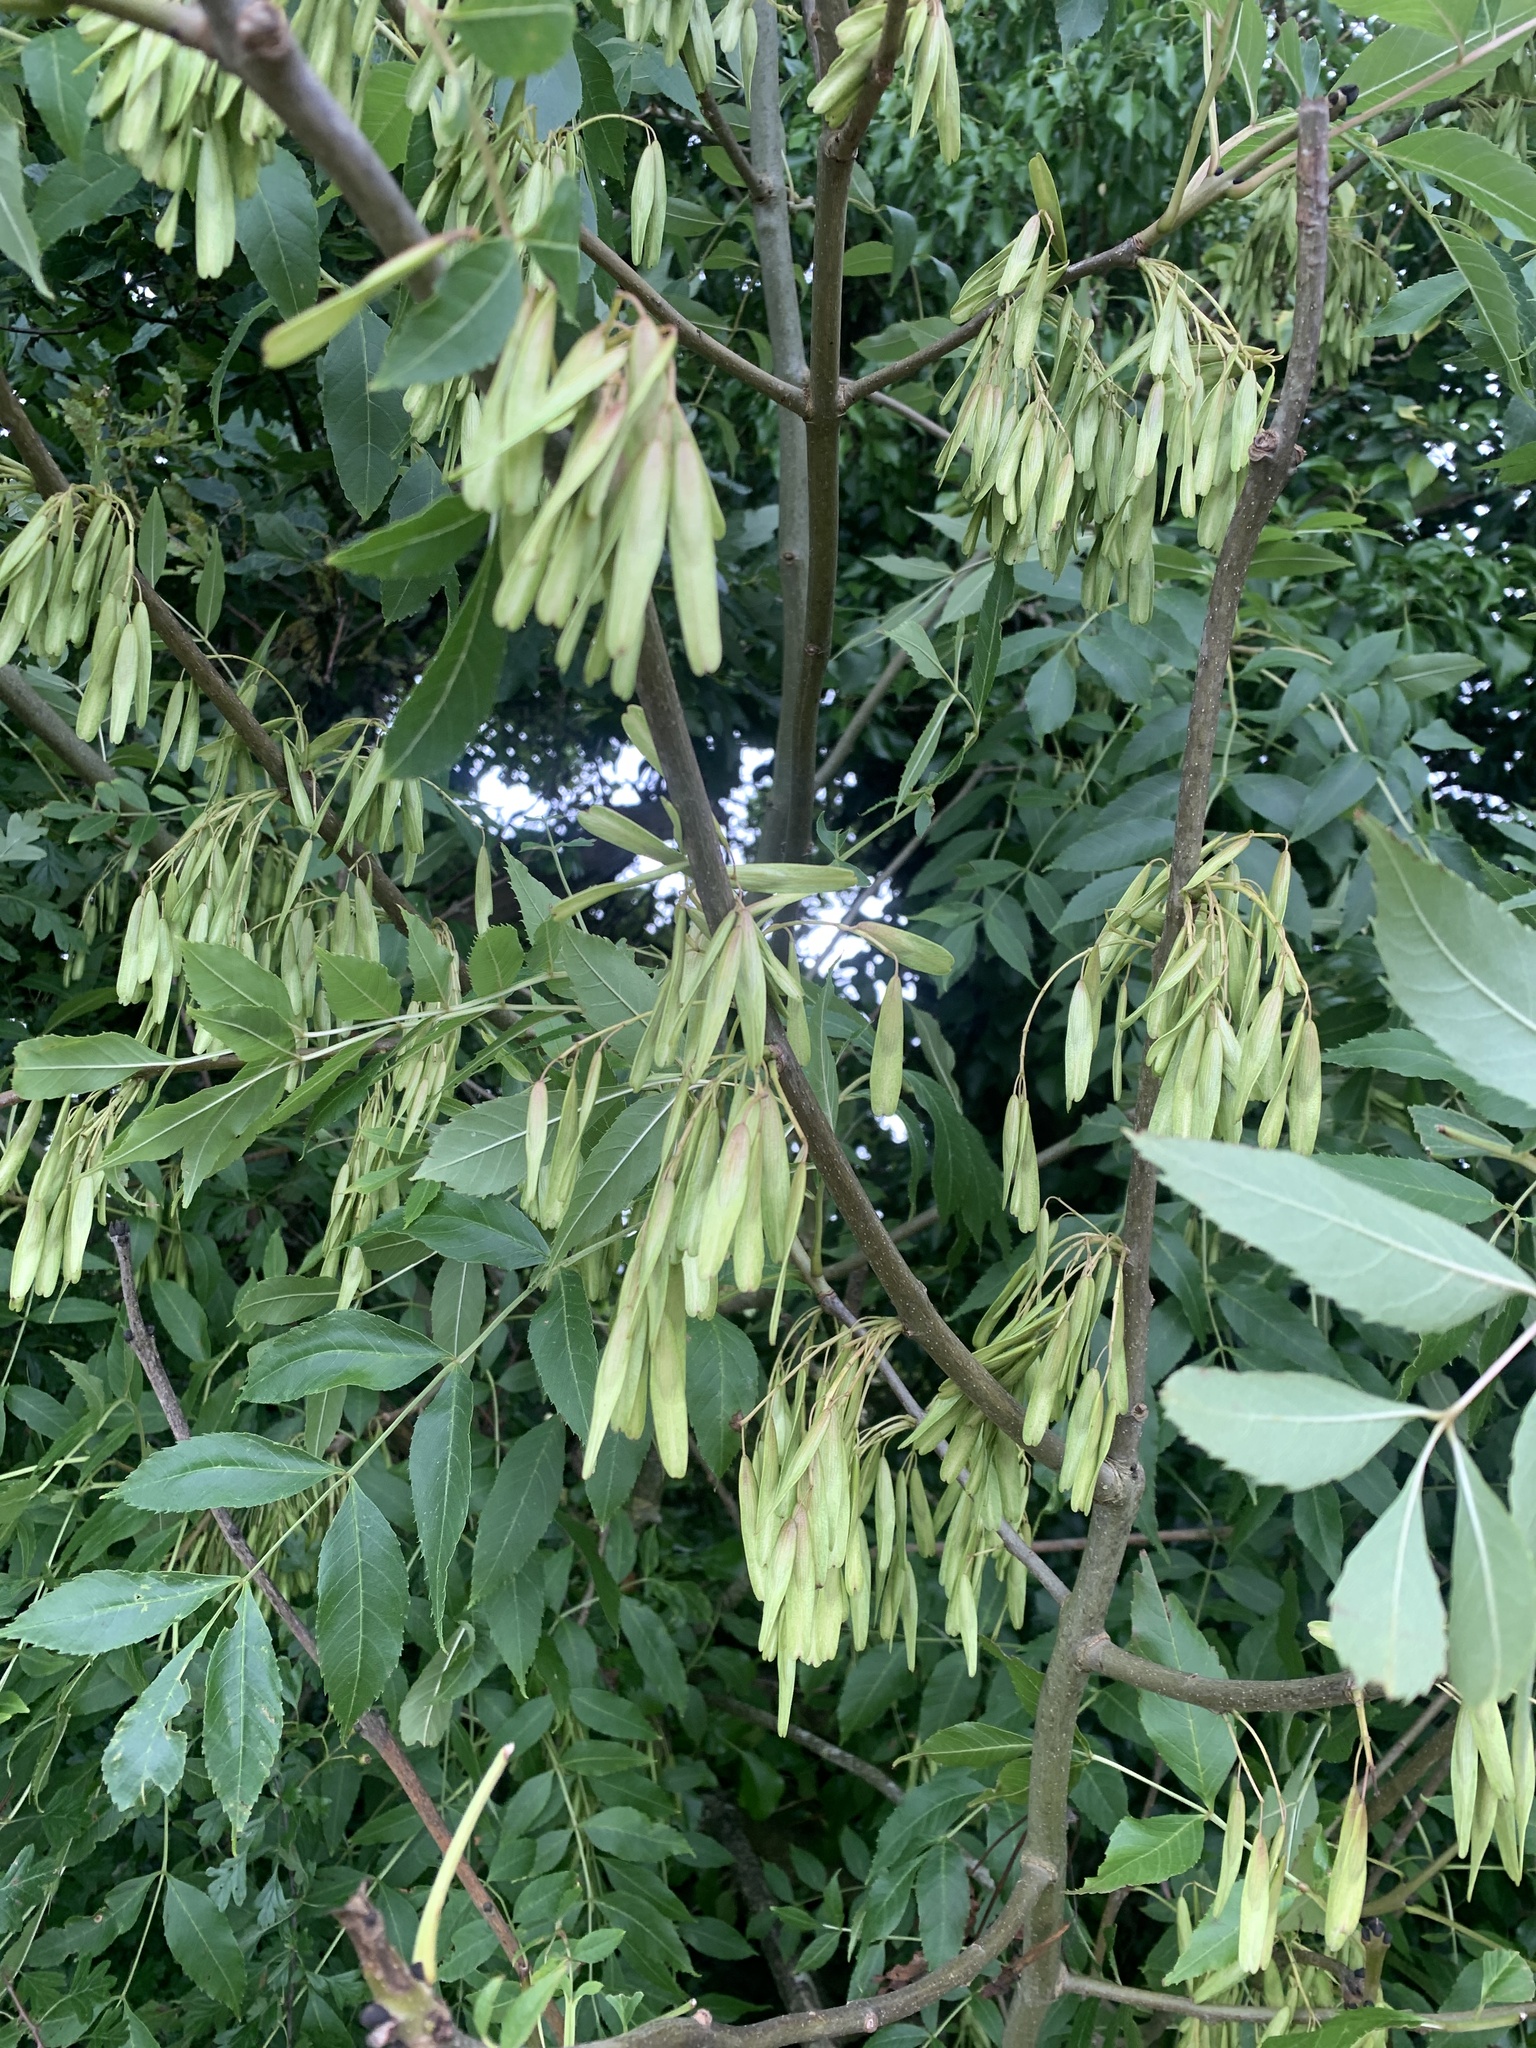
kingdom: Plantae
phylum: Tracheophyta
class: Magnoliopsida
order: Lamiales
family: Oleaceae
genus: Fraxinus
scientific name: Fraxinus excelsior
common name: European ash
